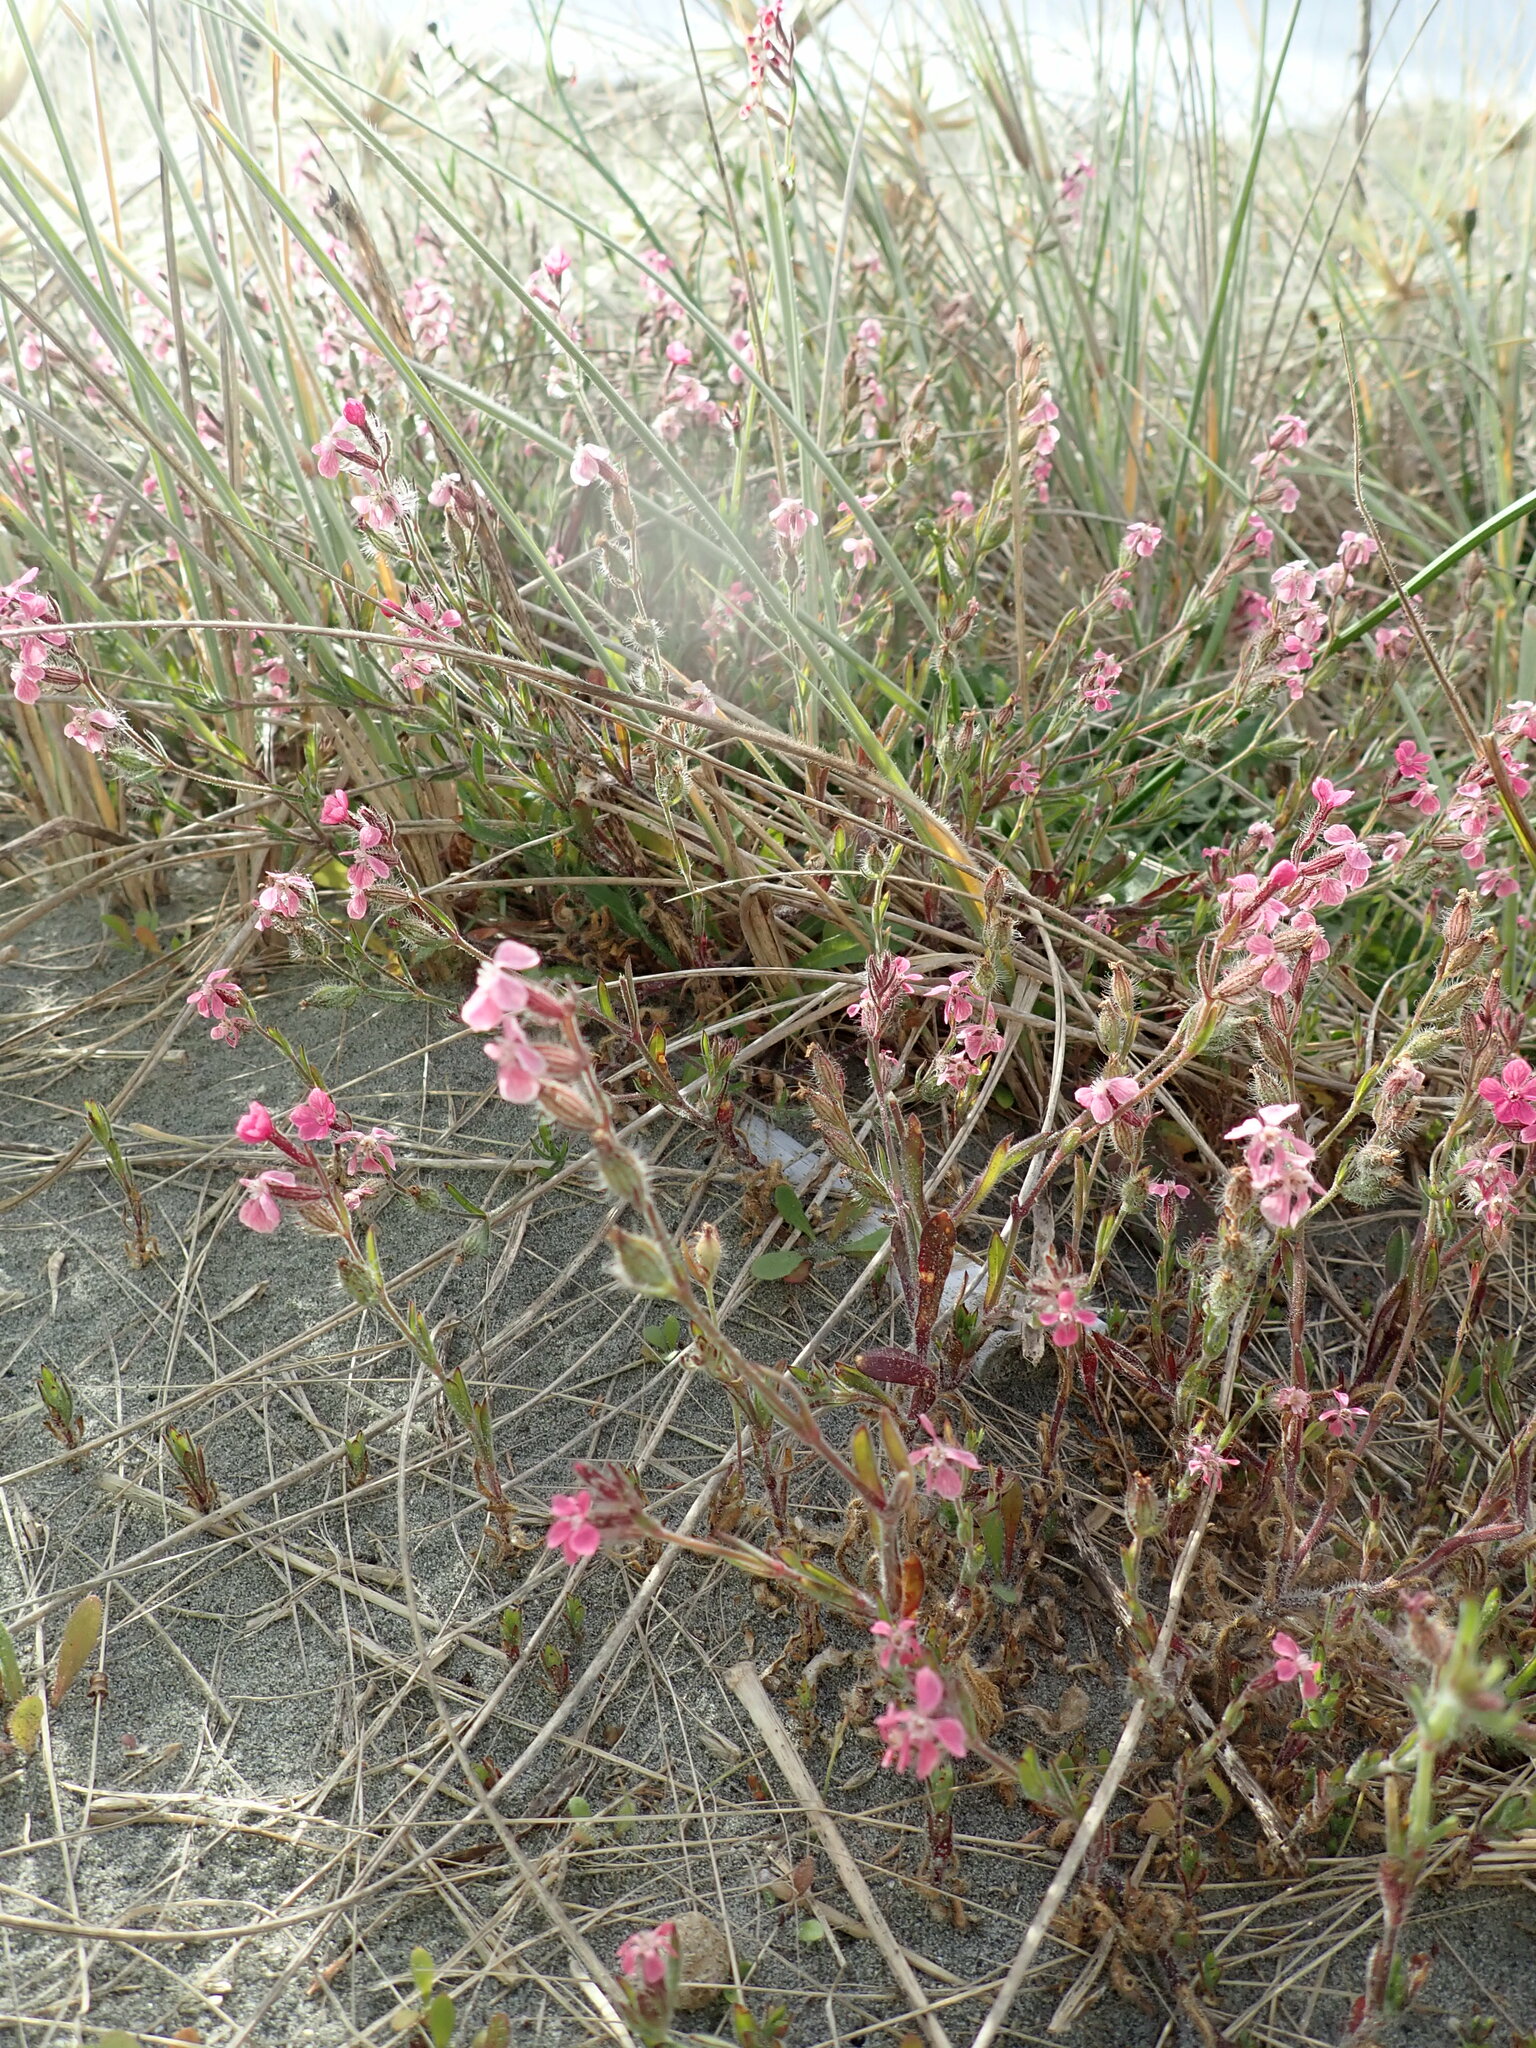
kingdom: Plantae
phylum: Tracheophyta
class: Magnoliopsida
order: Caryophyllales
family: Caryophyllaceae
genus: Silene
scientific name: Silene gallica
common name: Small-flowered catchfly
